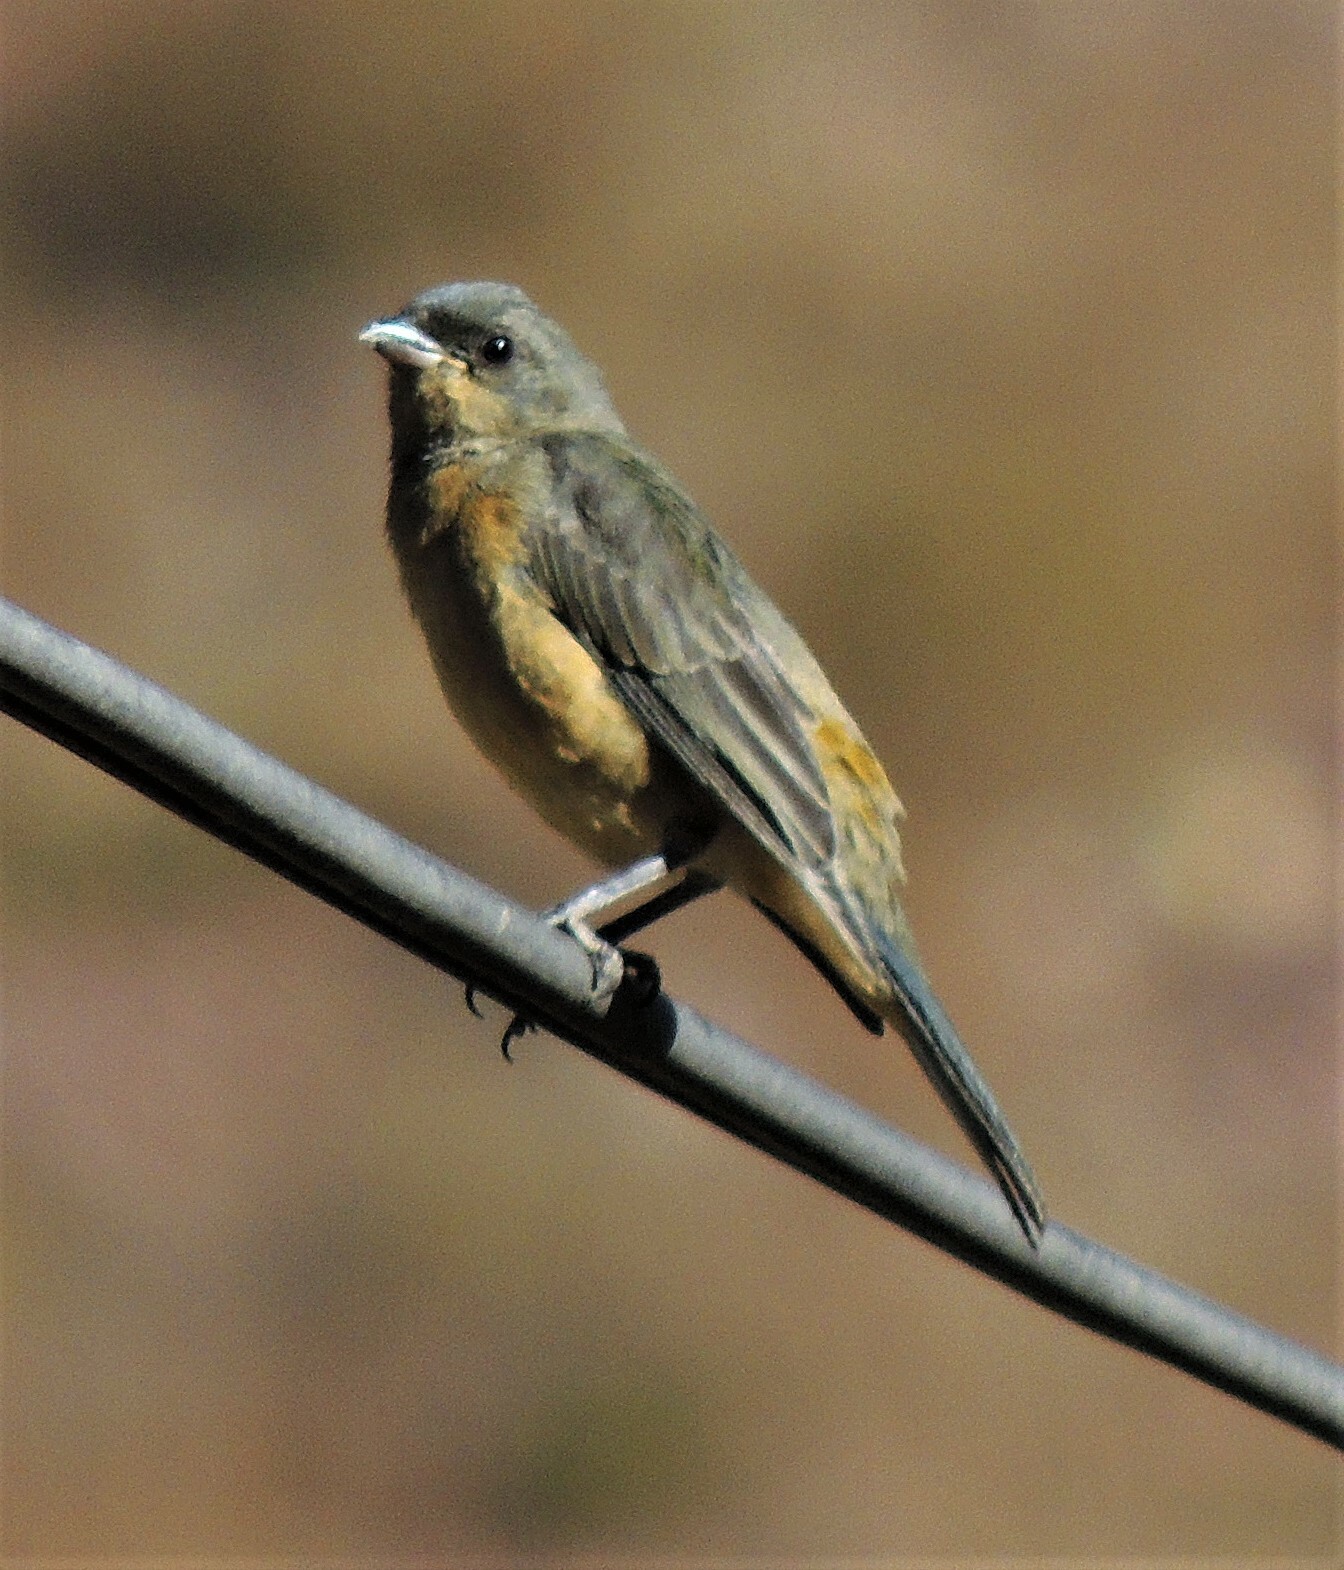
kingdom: Animalia
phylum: Chordata
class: Aves
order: Passeriformes
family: Thraupidae
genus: Rauenia
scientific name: Rauenia bonariensis
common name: Blue-and-yellow tanager
